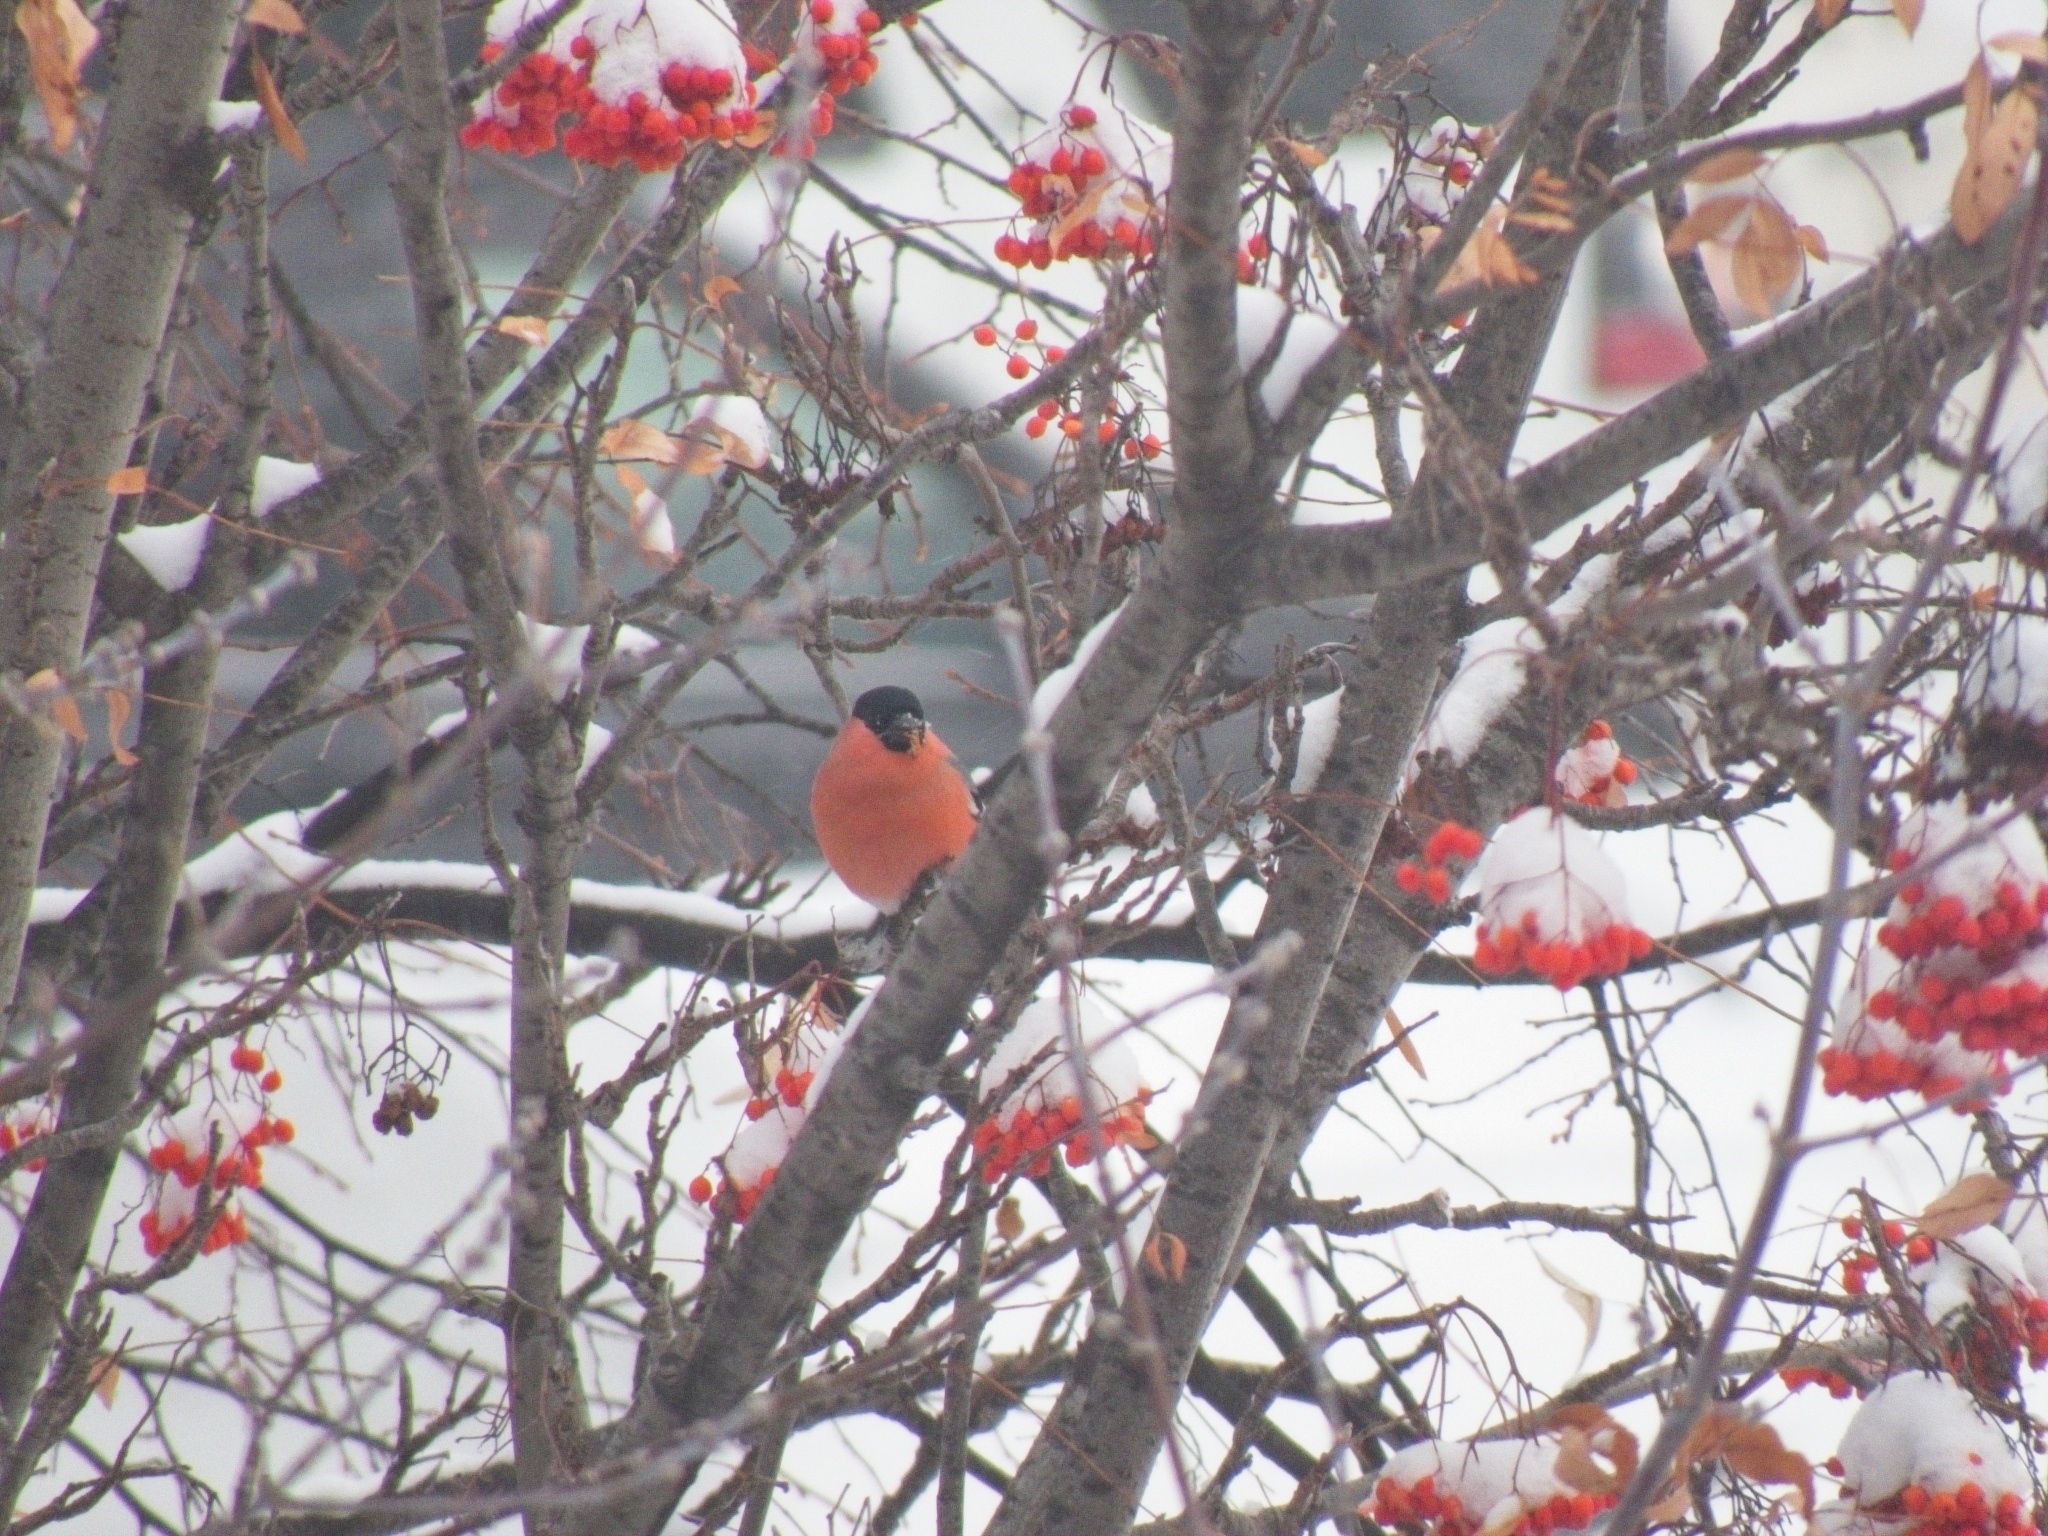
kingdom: Animalia
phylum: Chordata
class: Aves
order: Passeriformes
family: Fringillidae
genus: Pyrrhula
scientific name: Pyrrhula pyrrhula
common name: Eurasian bullfinch
